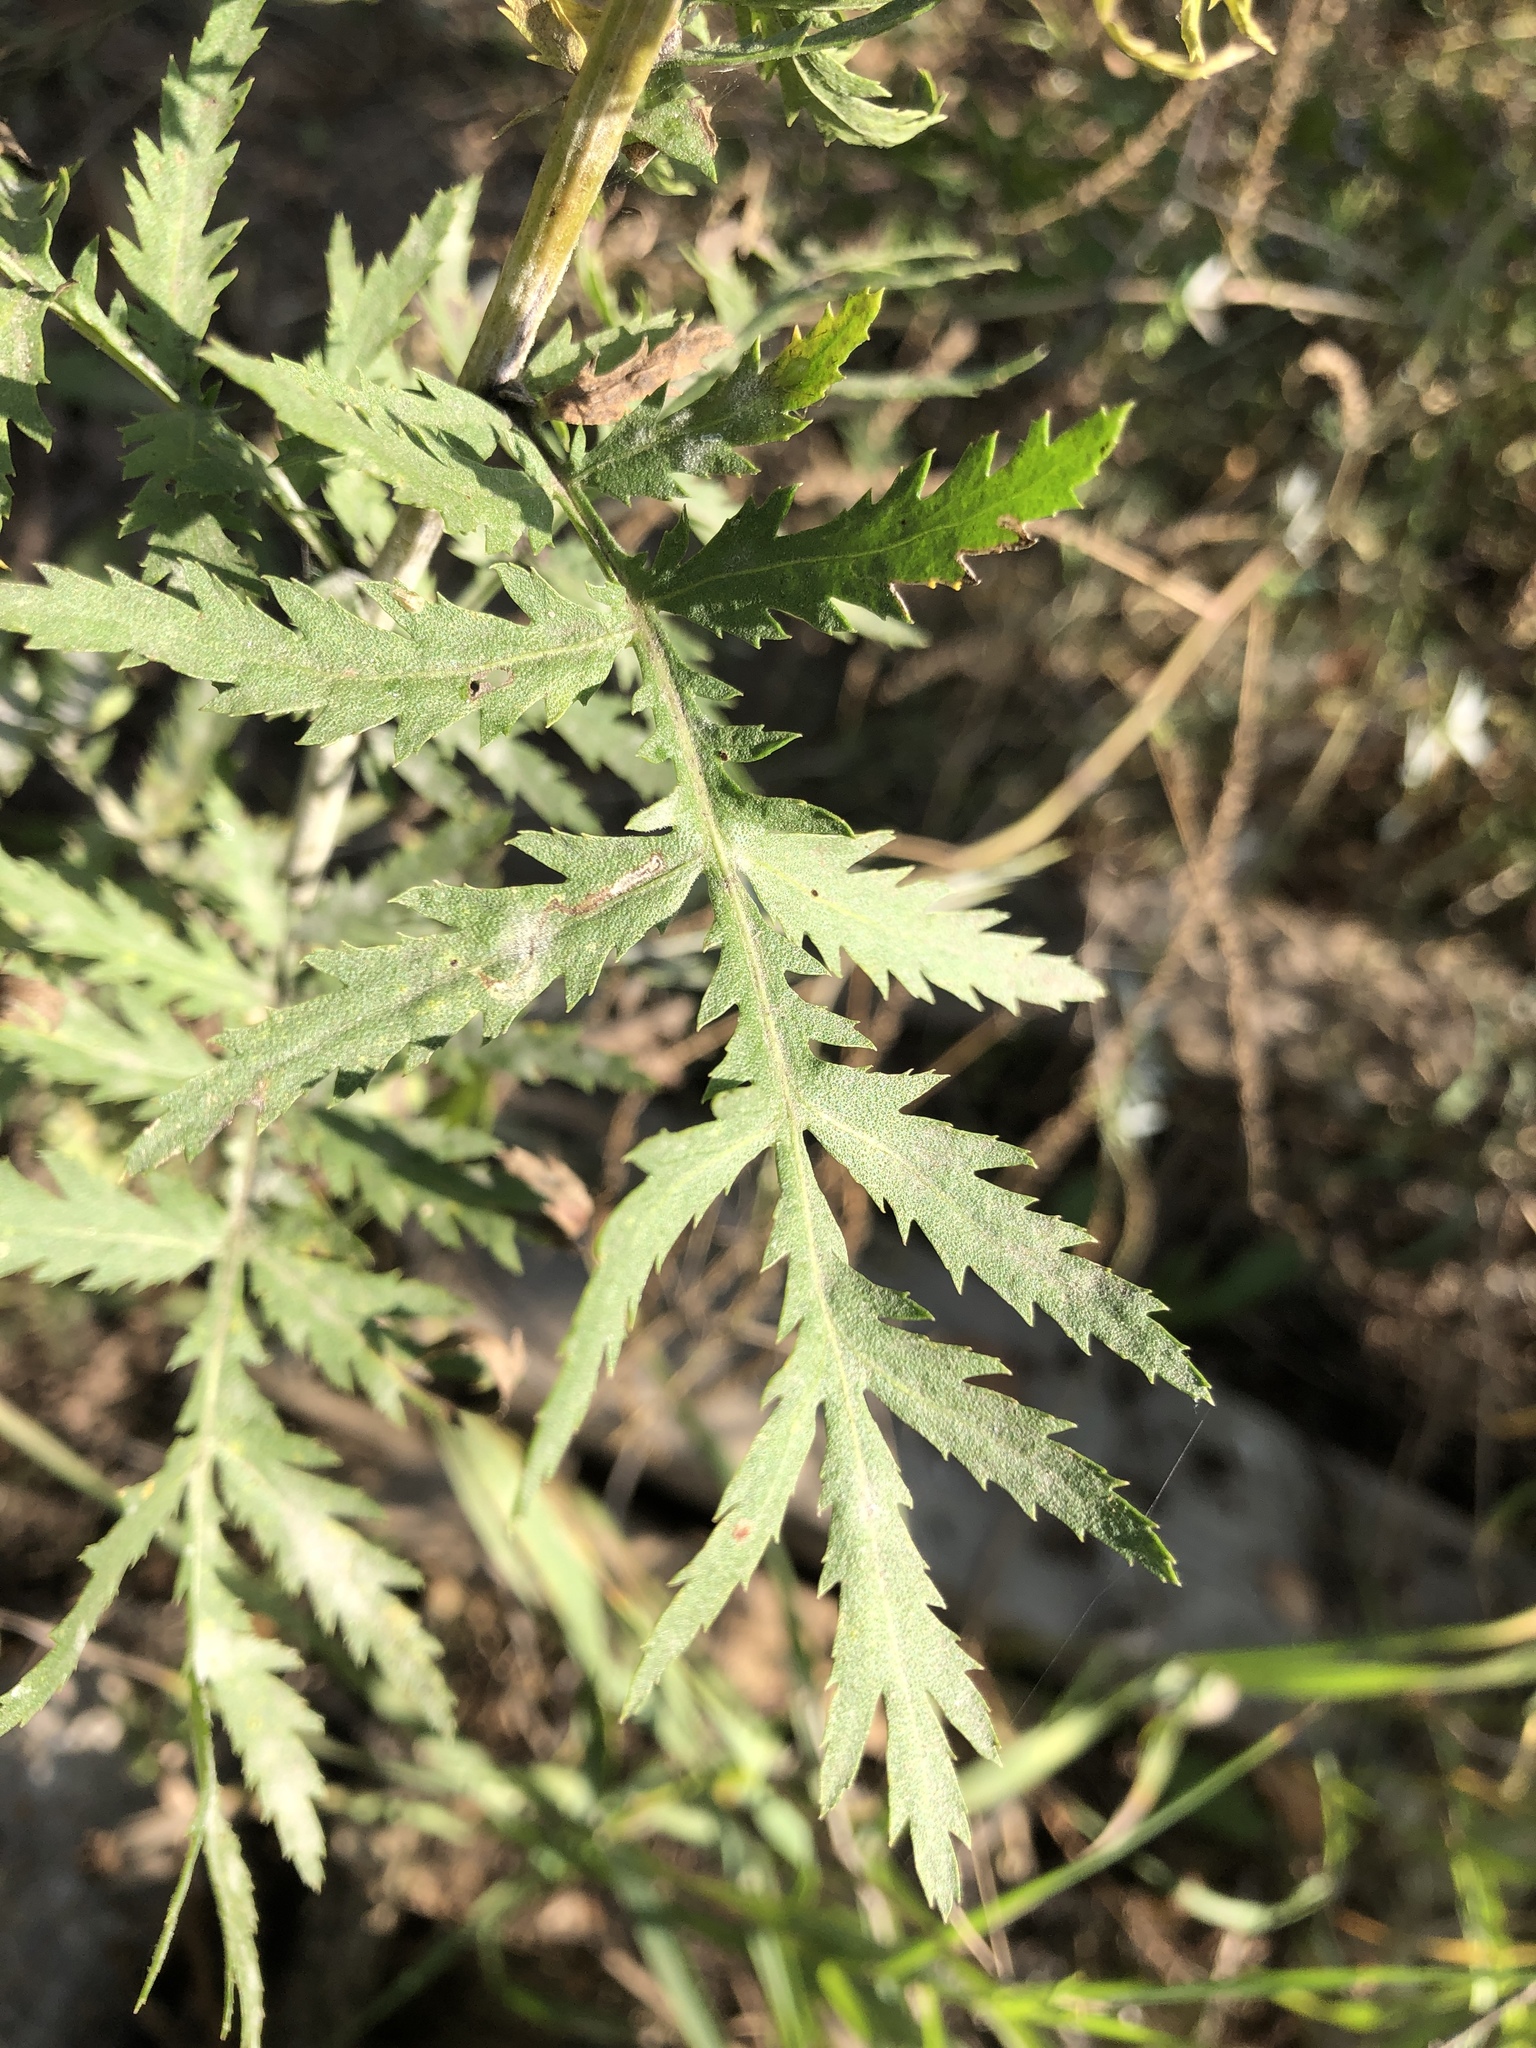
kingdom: Plantae
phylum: Tracheophyta
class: Magnoliopsida
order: Asterales
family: Asteraceae
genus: Tanacetum
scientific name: Tanacetum vulgare
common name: Common tansy
